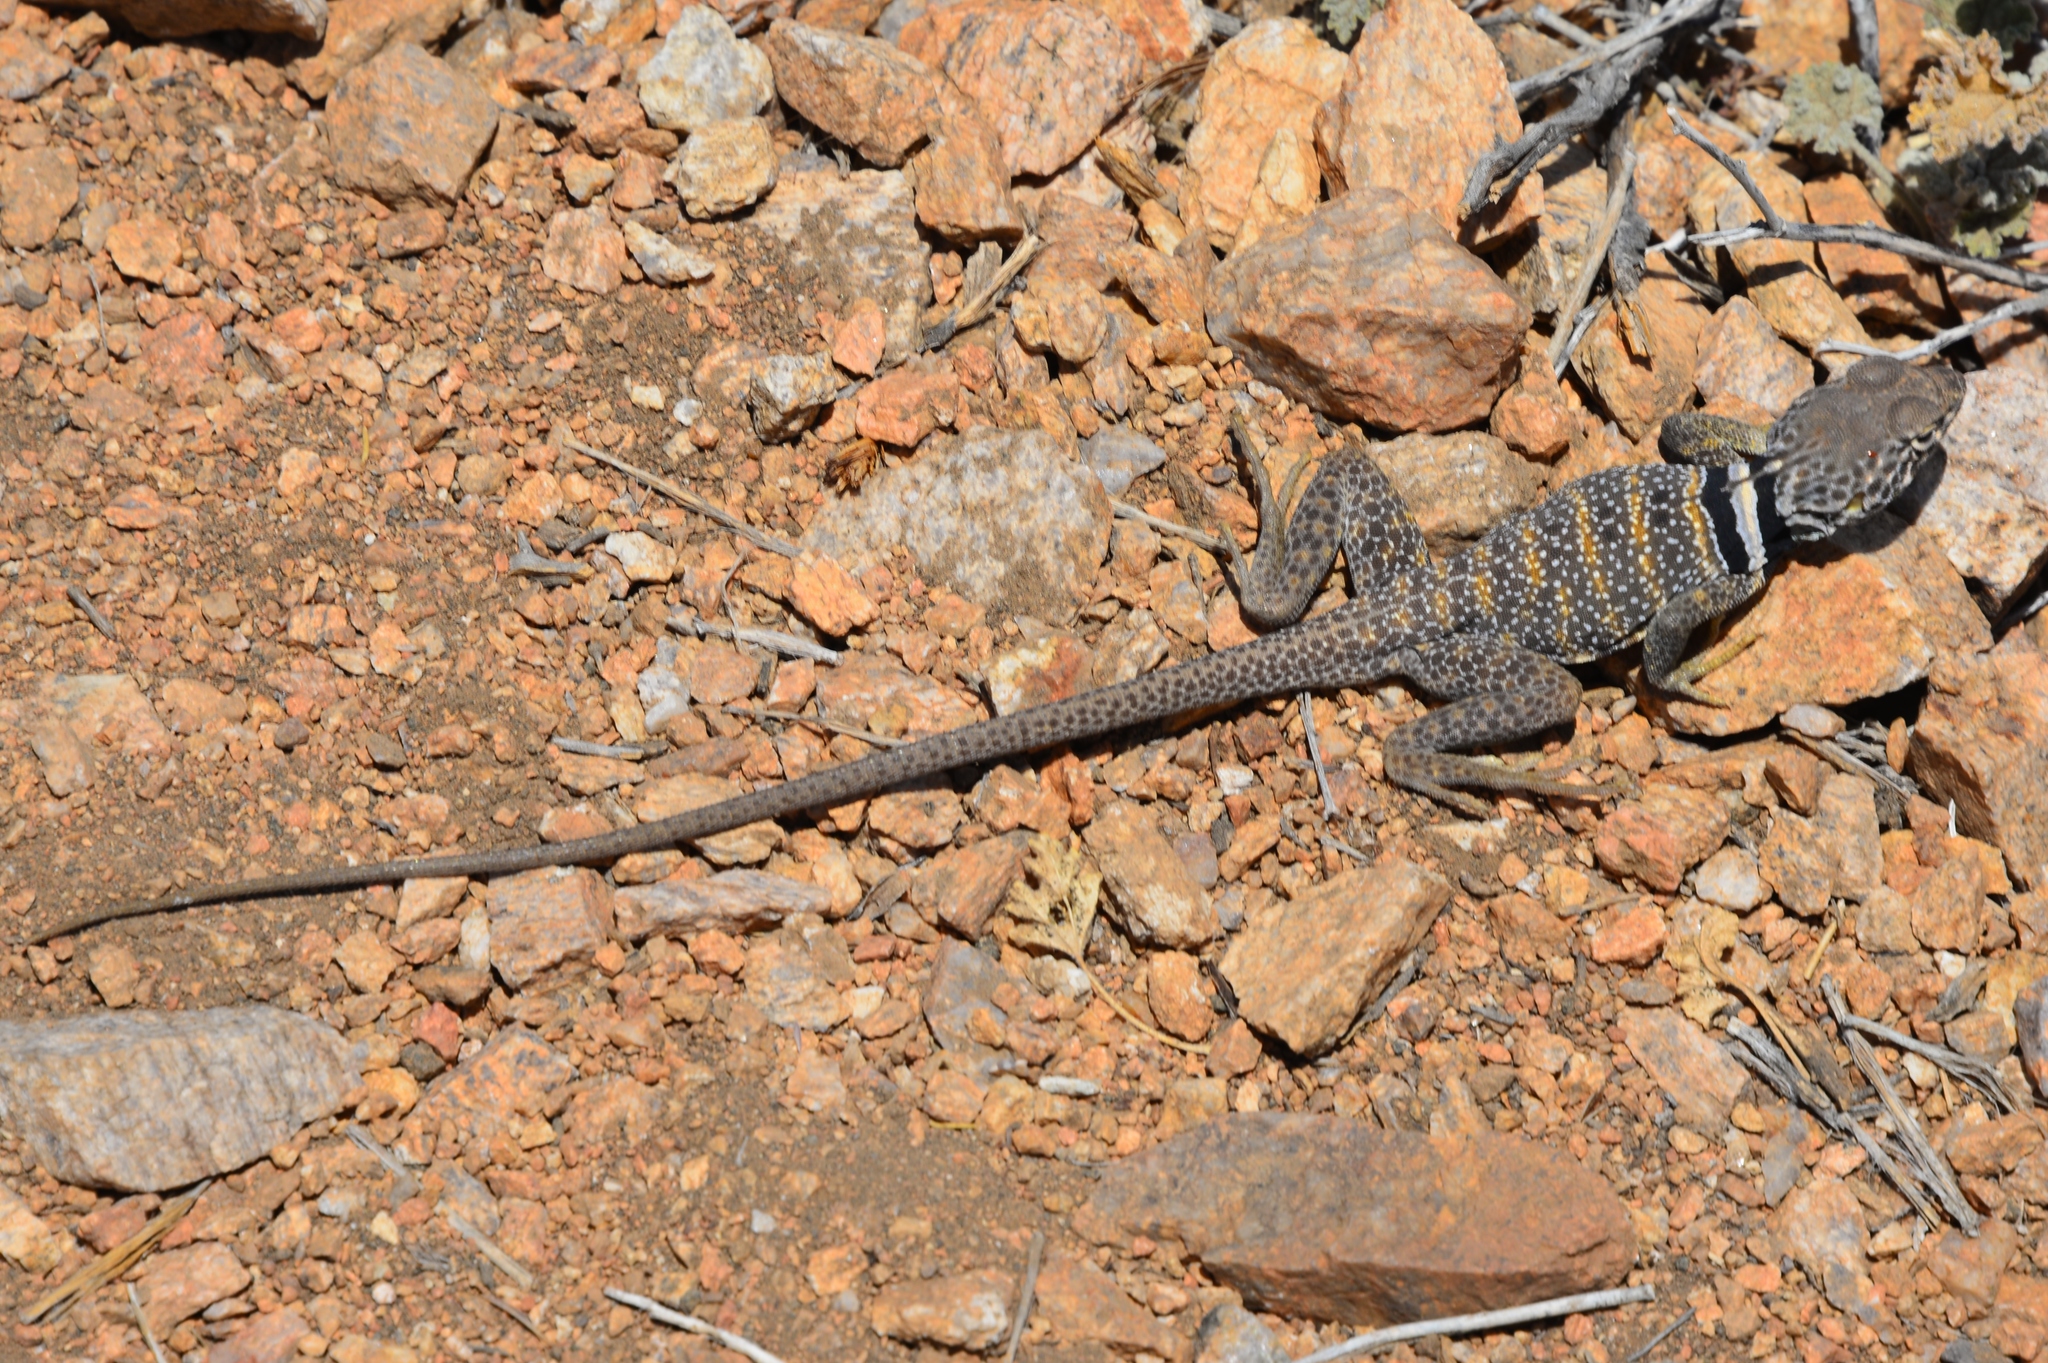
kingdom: Animalia
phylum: Chordata
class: Squamata
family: Crotaphytidae
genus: Crotaphytus
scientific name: Crotaphytus bicinctores
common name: Mojave black-collared lizard
